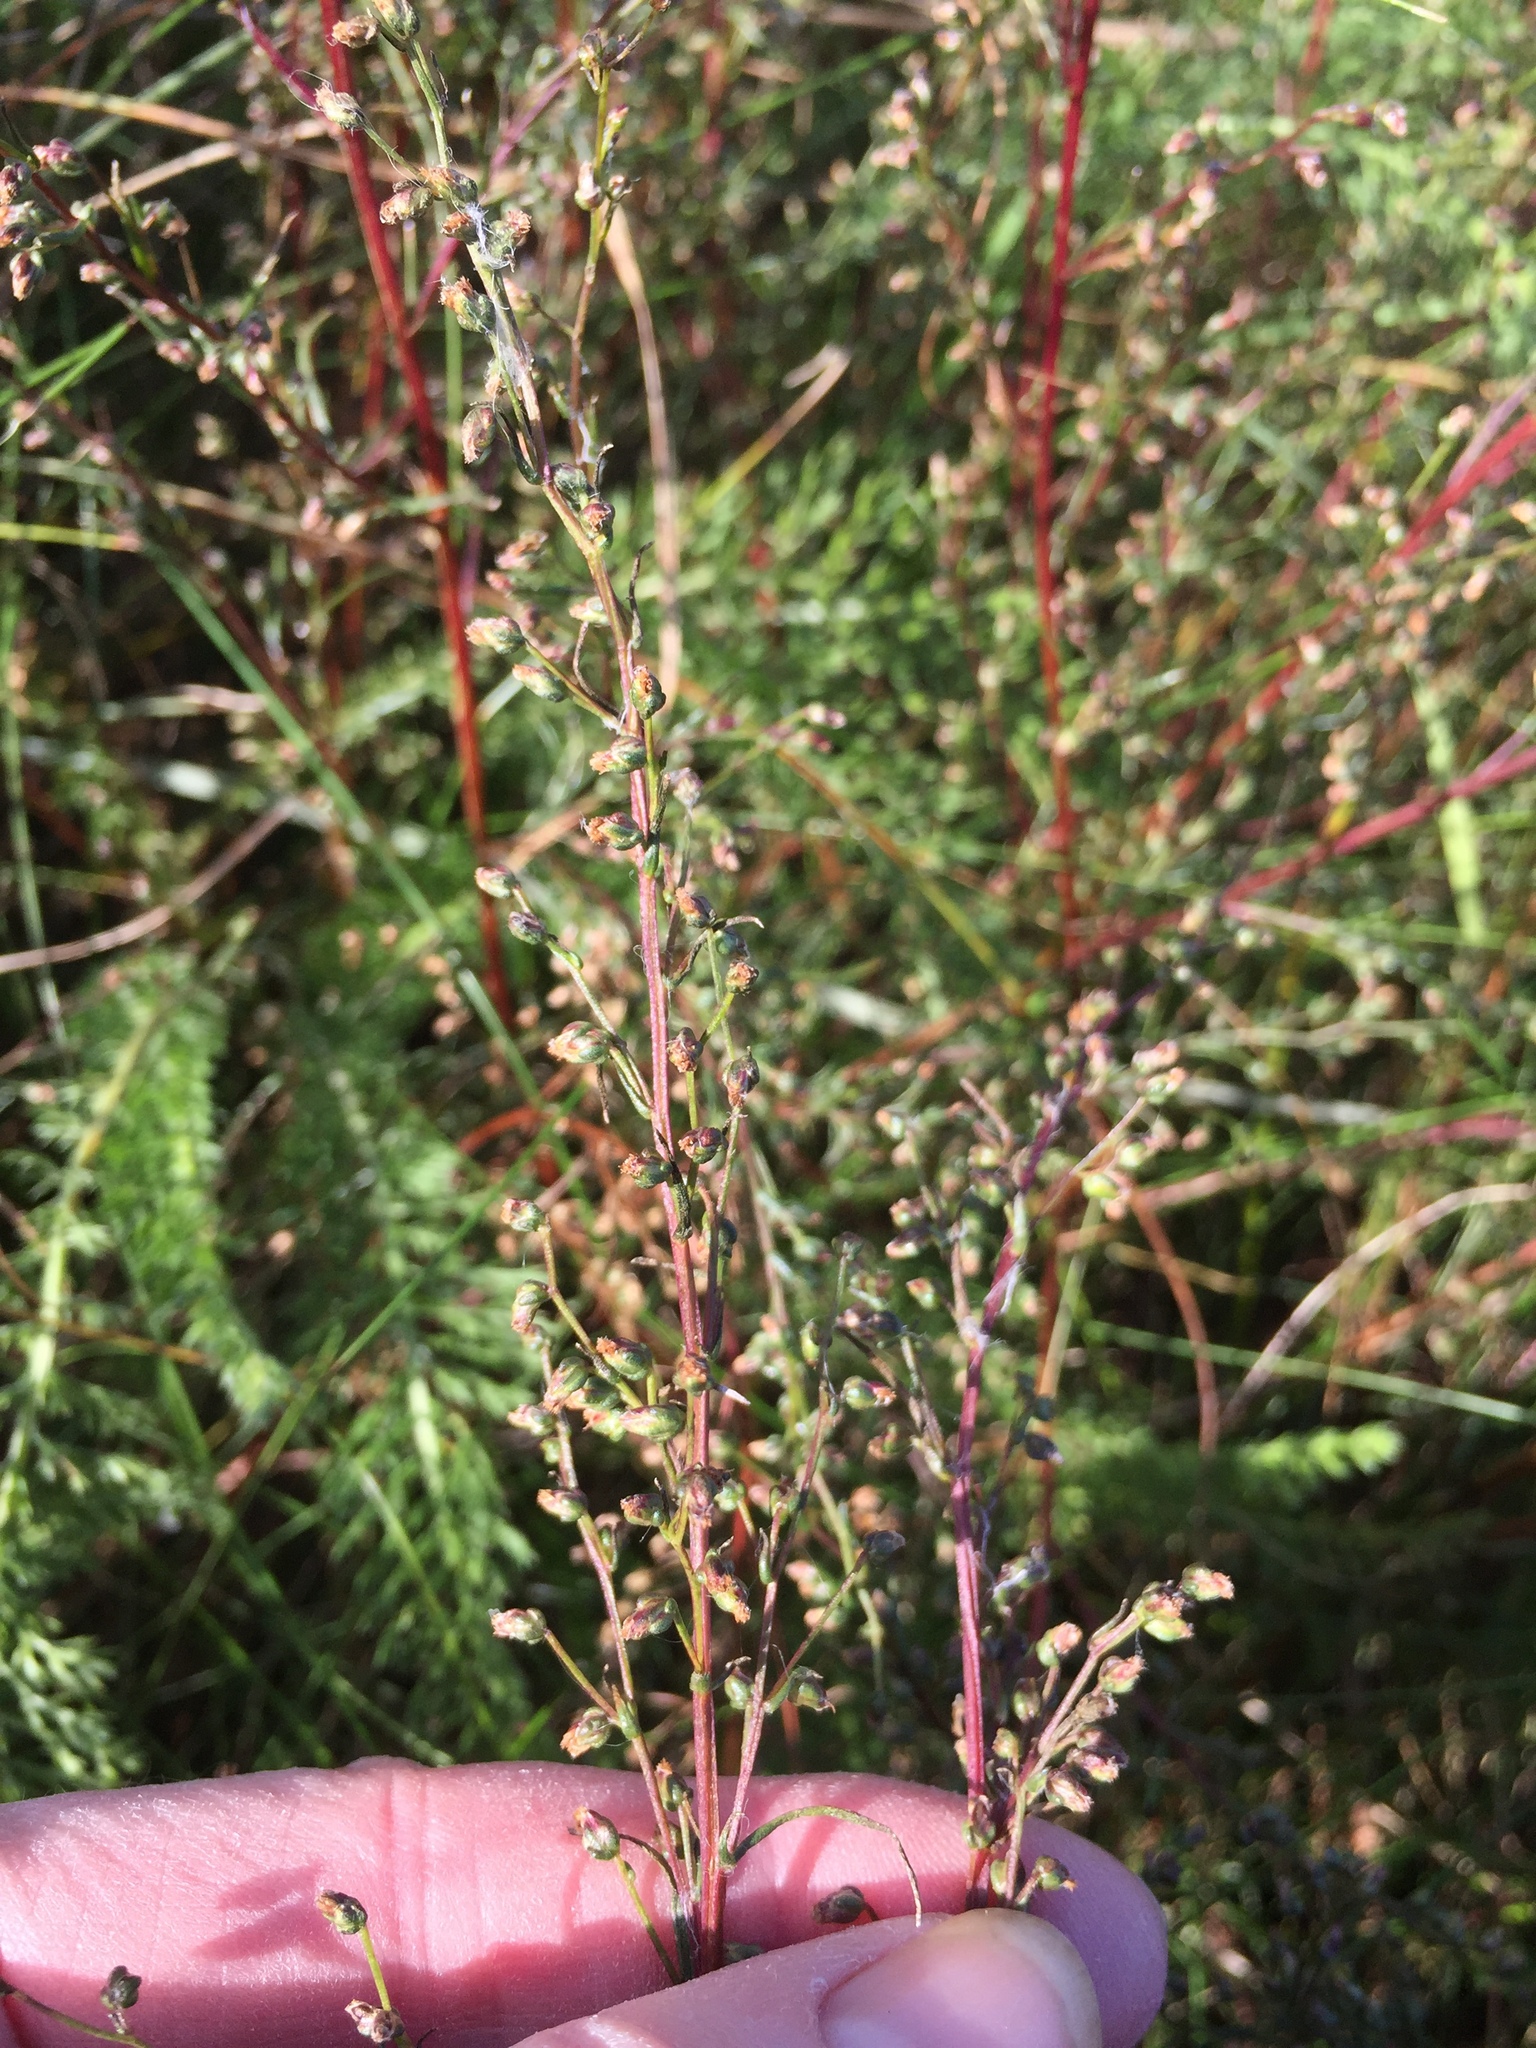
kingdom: Plantae
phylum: Tracheophyta
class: Magnoliopsida
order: Asterales
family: Asteraceae
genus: Artemisia
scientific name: Artemisia campestris
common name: Field wormwood
